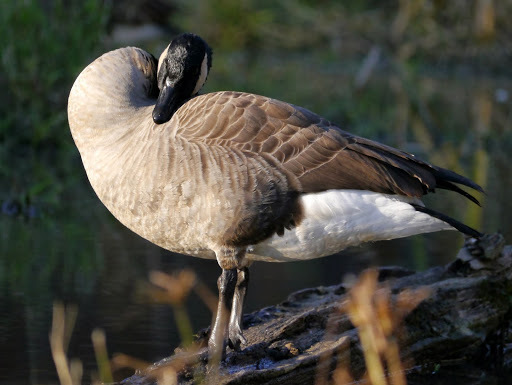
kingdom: Animalia
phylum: Chordata
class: Aves
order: Anseriformes
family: Anatidae
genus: Branta
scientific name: Branta canadensis
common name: Canada goose
